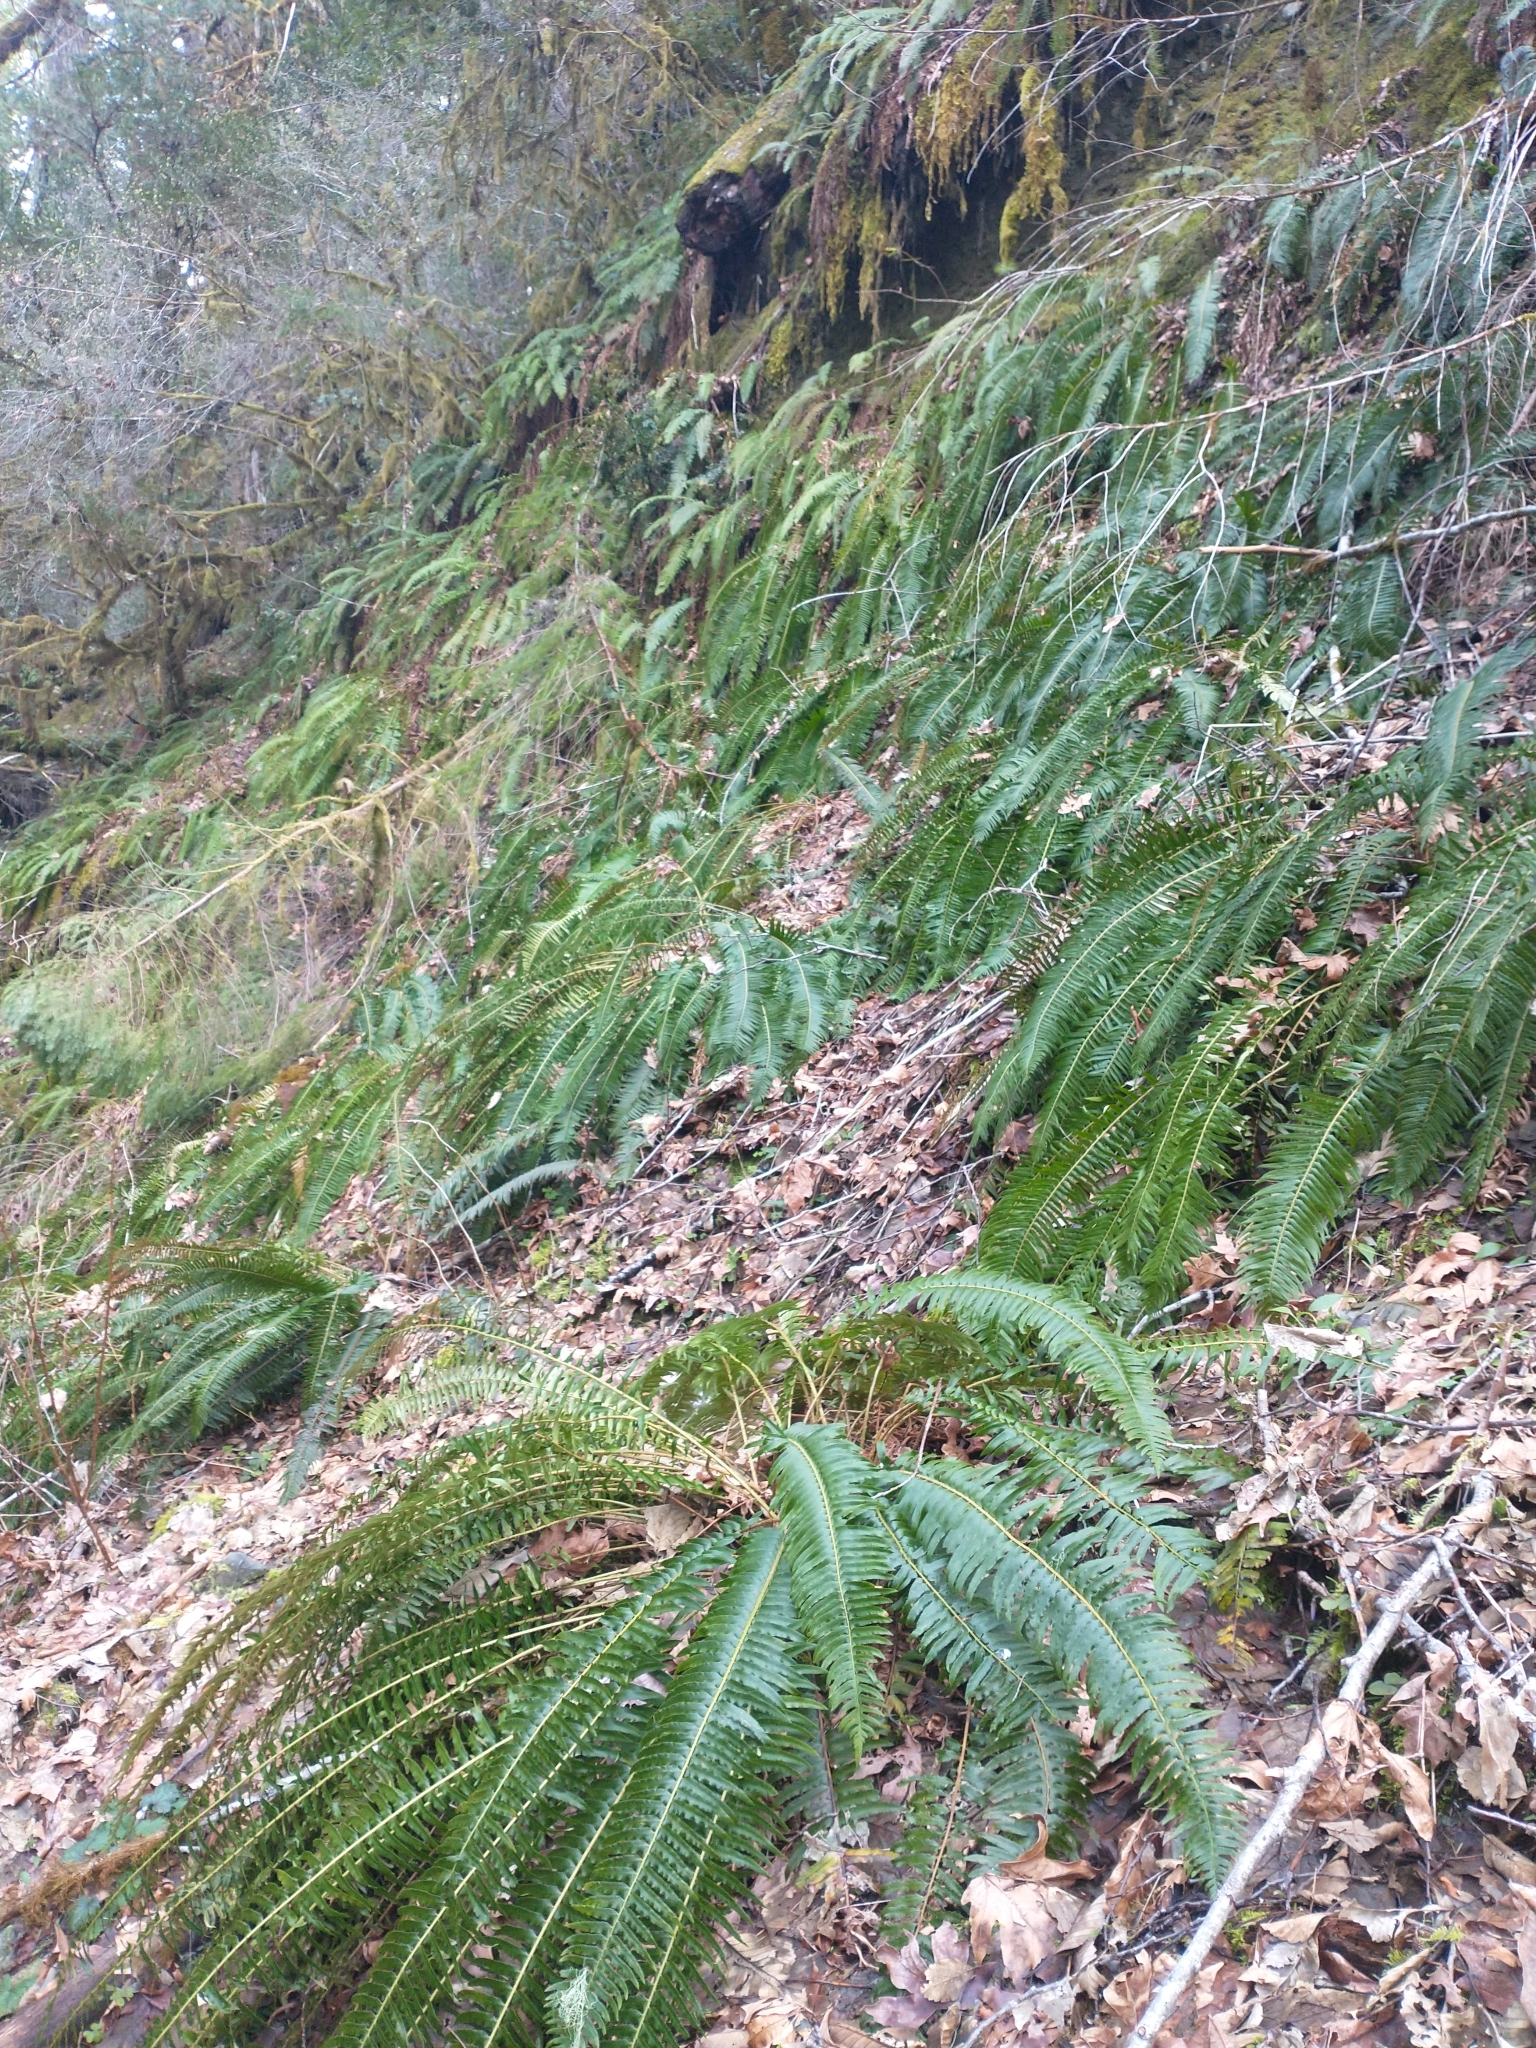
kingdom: Plantae
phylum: Tracheophyta
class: Polypodiopsida
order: Polypodiales
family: Dryopteridaceae
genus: Polystichum
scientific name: Polystichum munitum
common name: Western sword-fern
